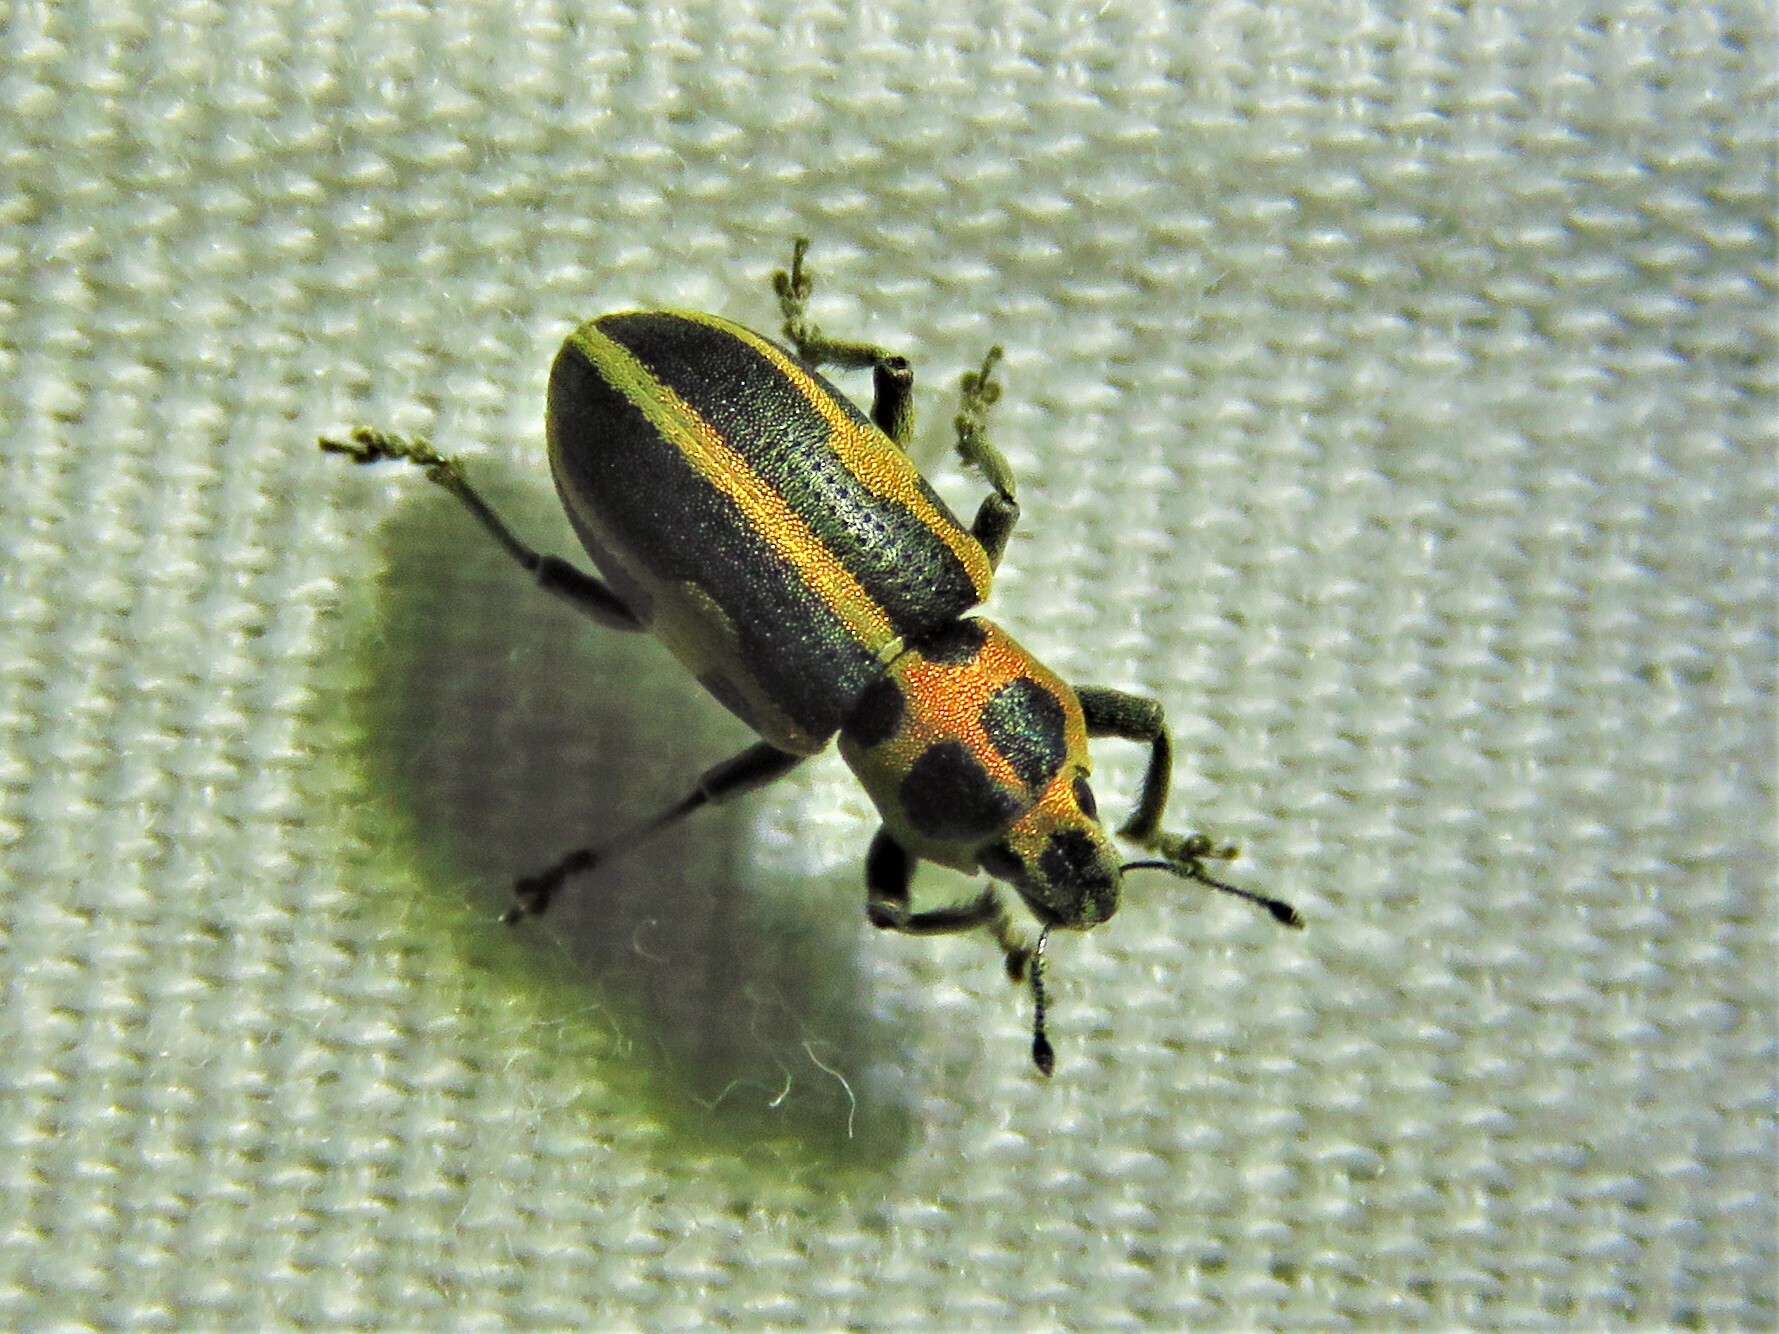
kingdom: Animalia
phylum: Arthropoda
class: Insecta
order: Coleoptera
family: Curculionidae
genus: Eudiagogus
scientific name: Eudiagogus pulcher
